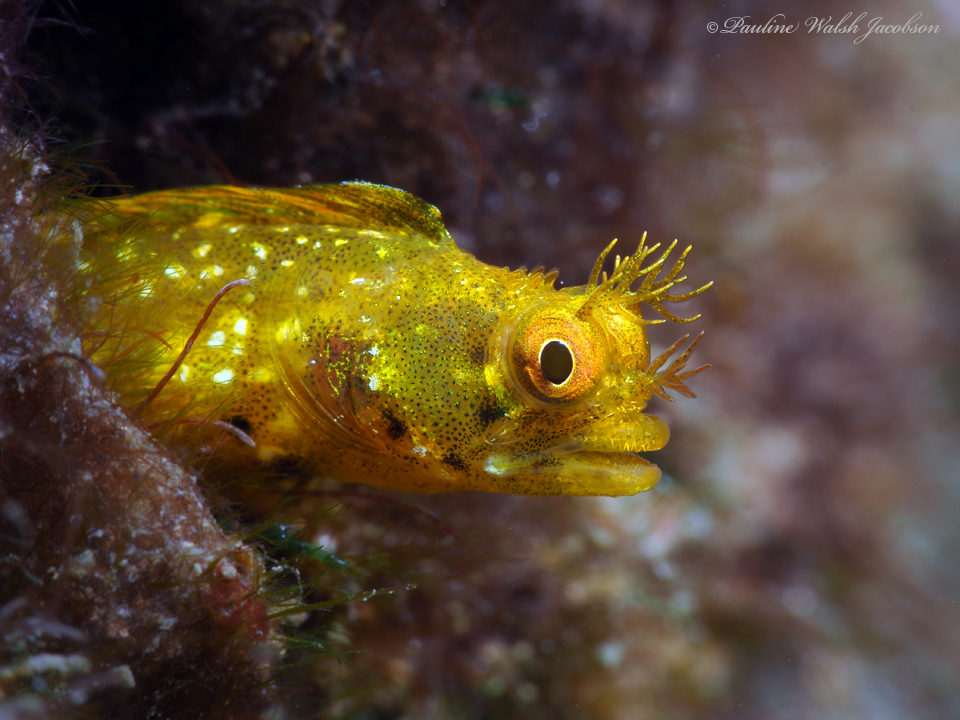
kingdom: Animalia
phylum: Chordata
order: Perciformes
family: Chaenopsidae
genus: Acanthemblemaria
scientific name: Acanthemblemaria aspera
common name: Roughhead blenny
